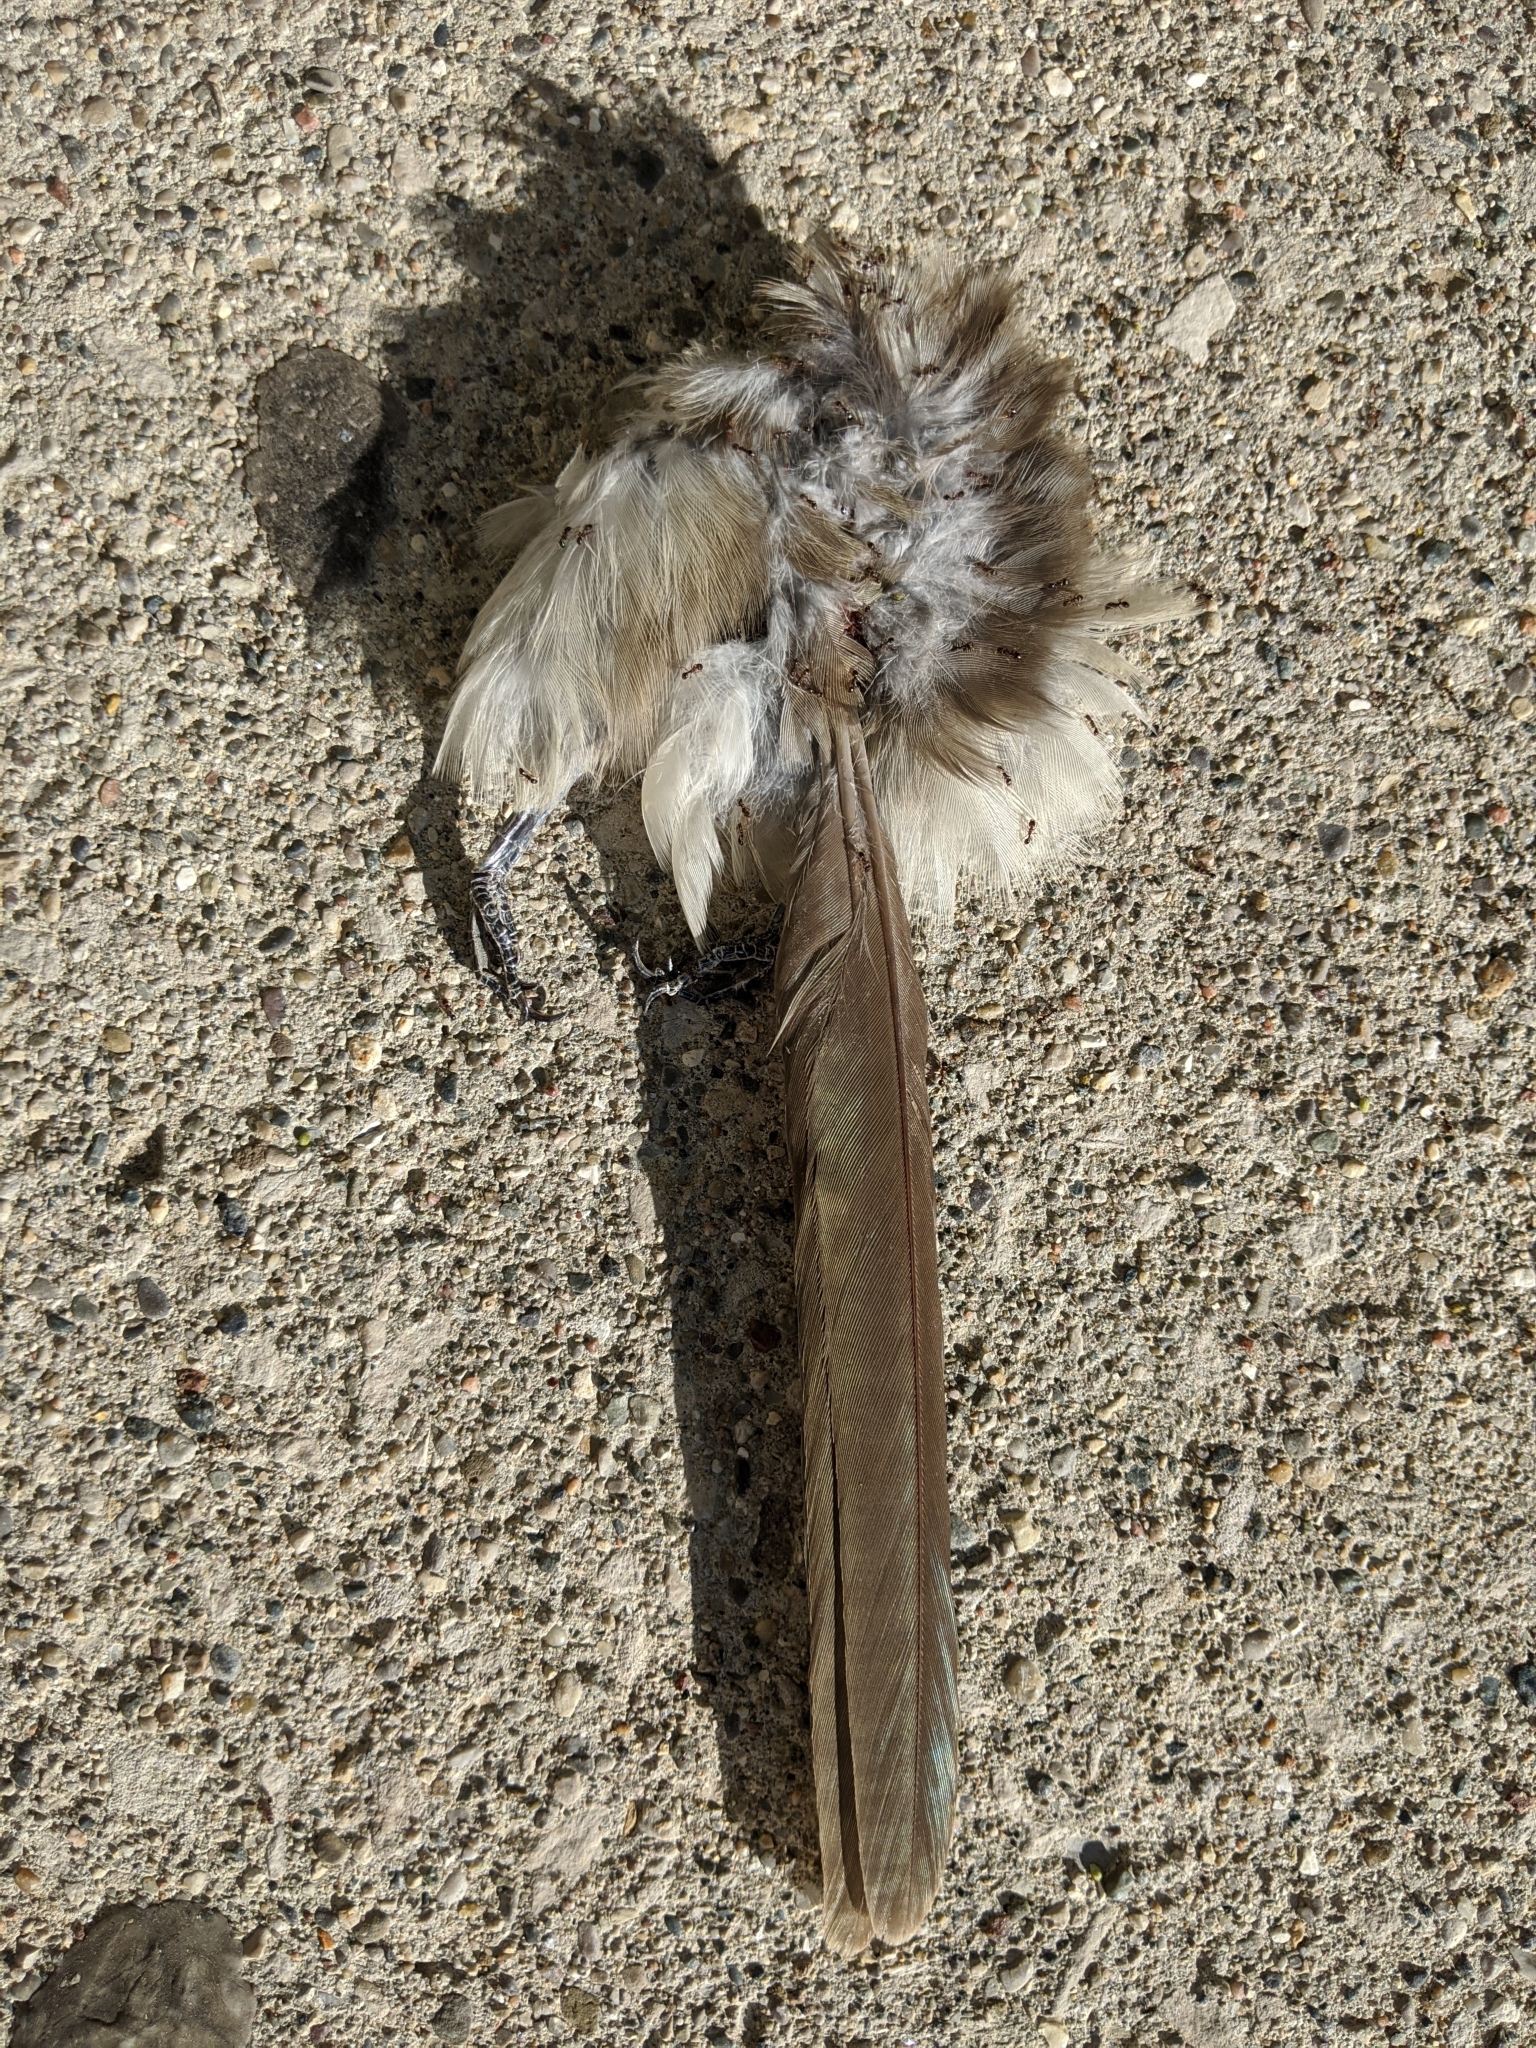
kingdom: Animalia
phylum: Chordata
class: Aves
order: Cuculiformes
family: Cuculidae
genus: Coccyzus
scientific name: Coccyzus americanus
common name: Yellow-billed cuckoo
